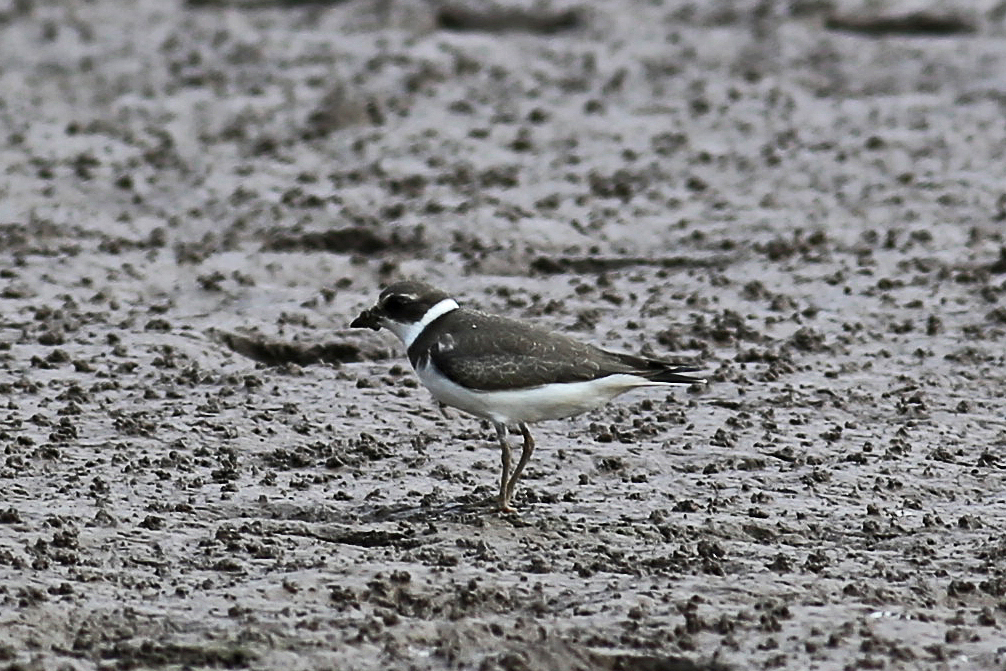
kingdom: Animalia
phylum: Chordata
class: Aves
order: Charadriiformes
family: Charadriidae
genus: Charadrius
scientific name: Charadrius semipalmatus
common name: Semipalmated plover
